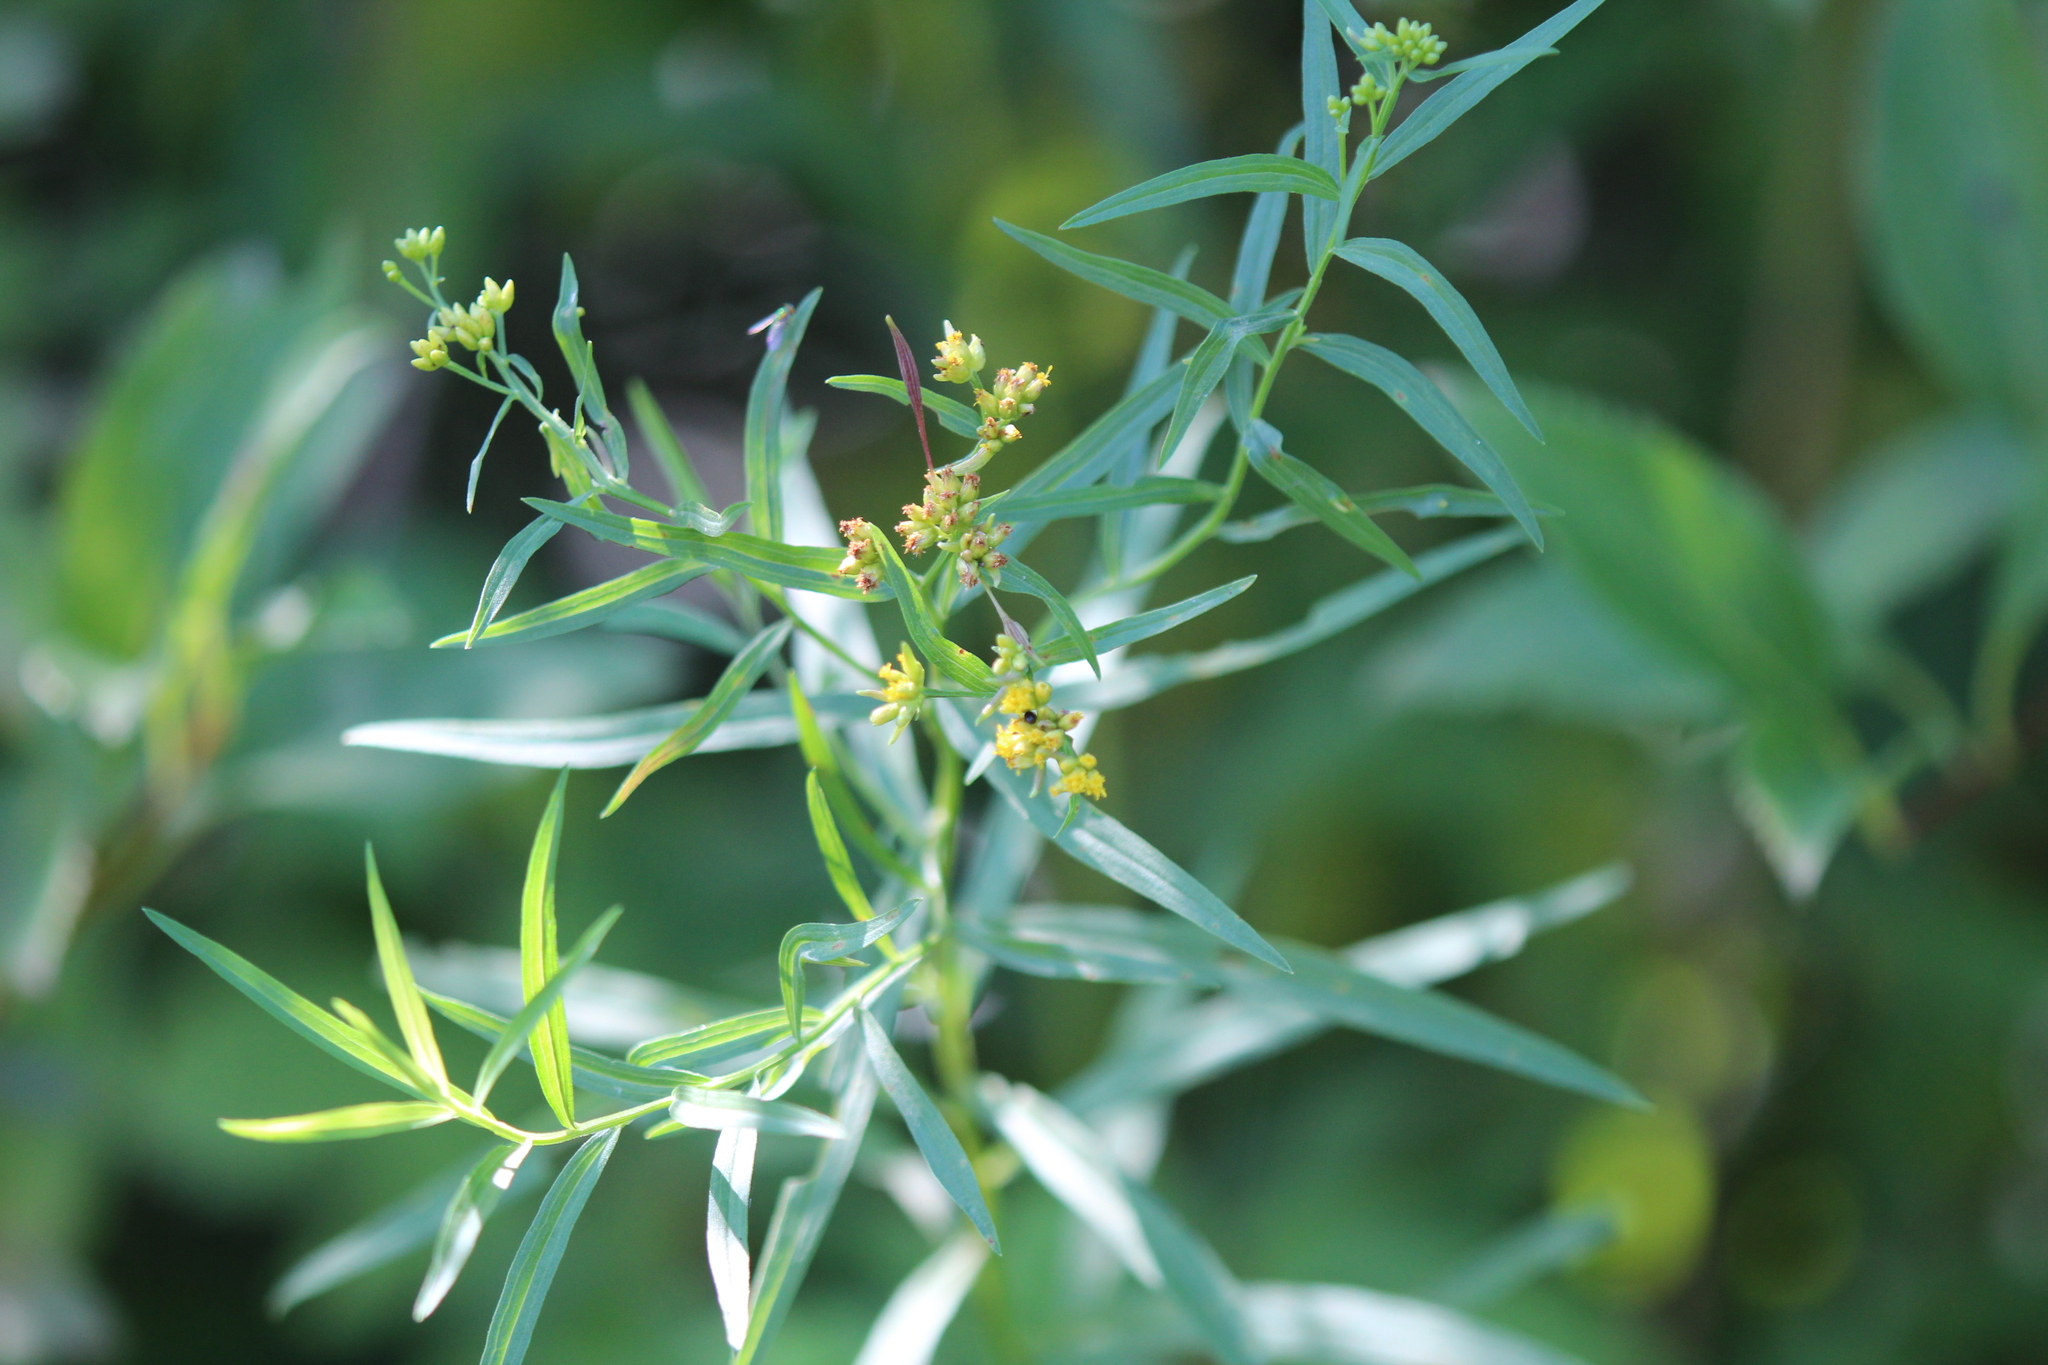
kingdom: Plantae
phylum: Tracheophyta
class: Magnoliopsida
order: Asterales
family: Asteraceae
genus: Euthamia
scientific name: Euthamia graminifolia
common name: Common goldentop
